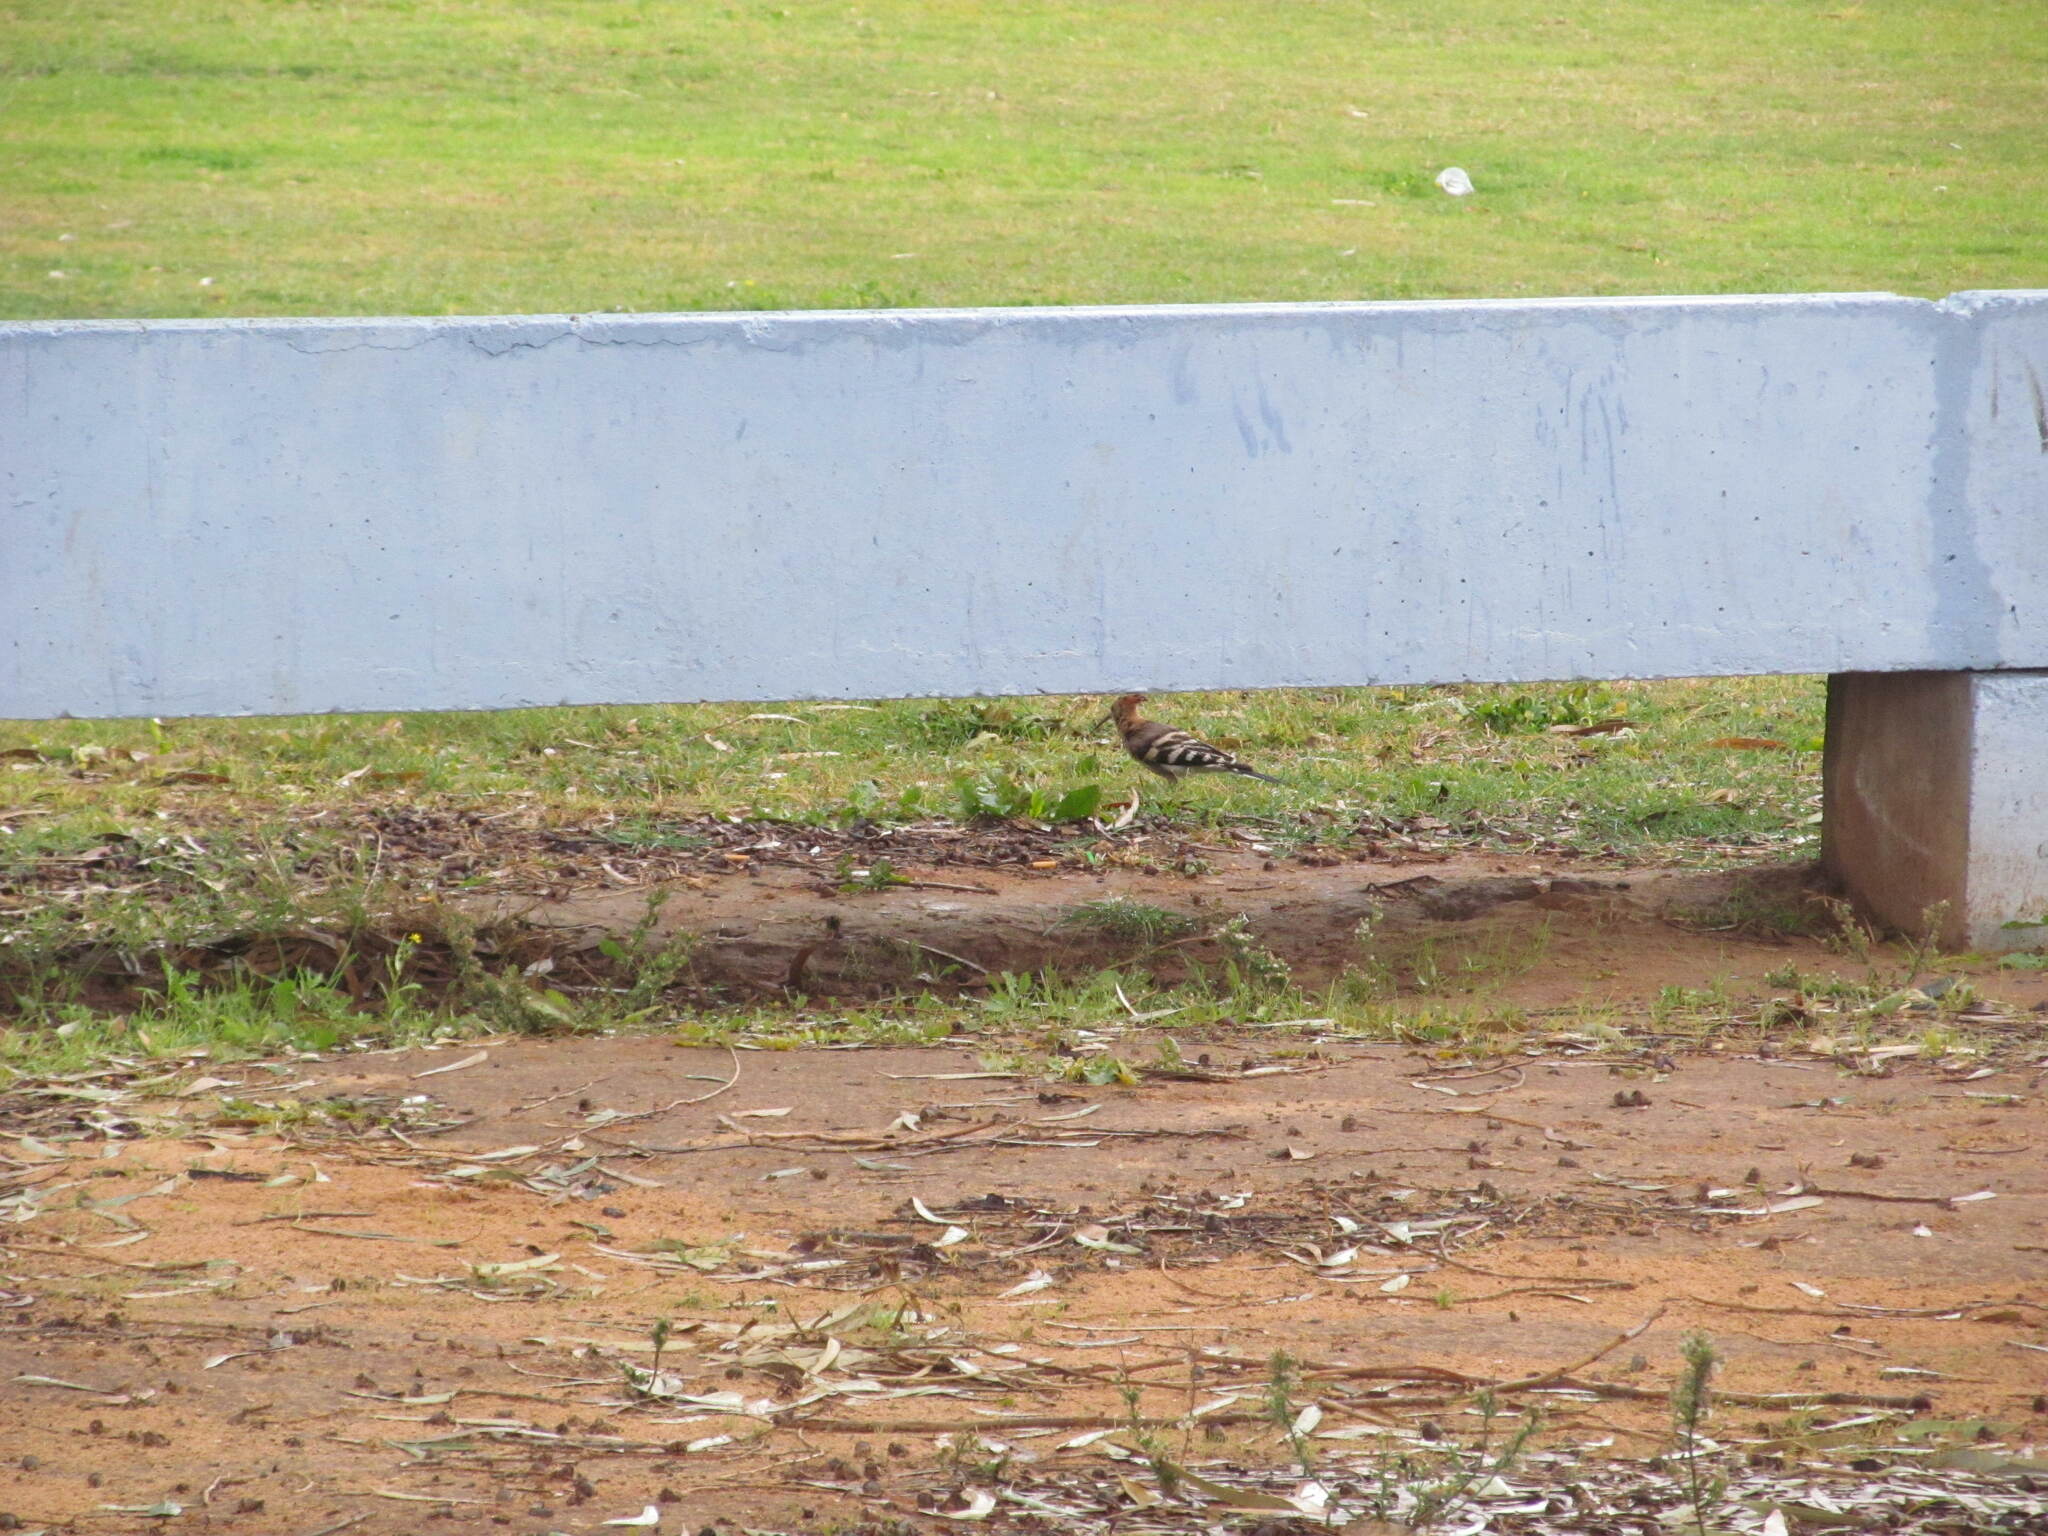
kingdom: Animalia
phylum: Chordata
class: Aves
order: Bucerotiformes
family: Upupidae
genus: Upupa
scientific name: Upupa epops
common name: Eurasian hoopoe
